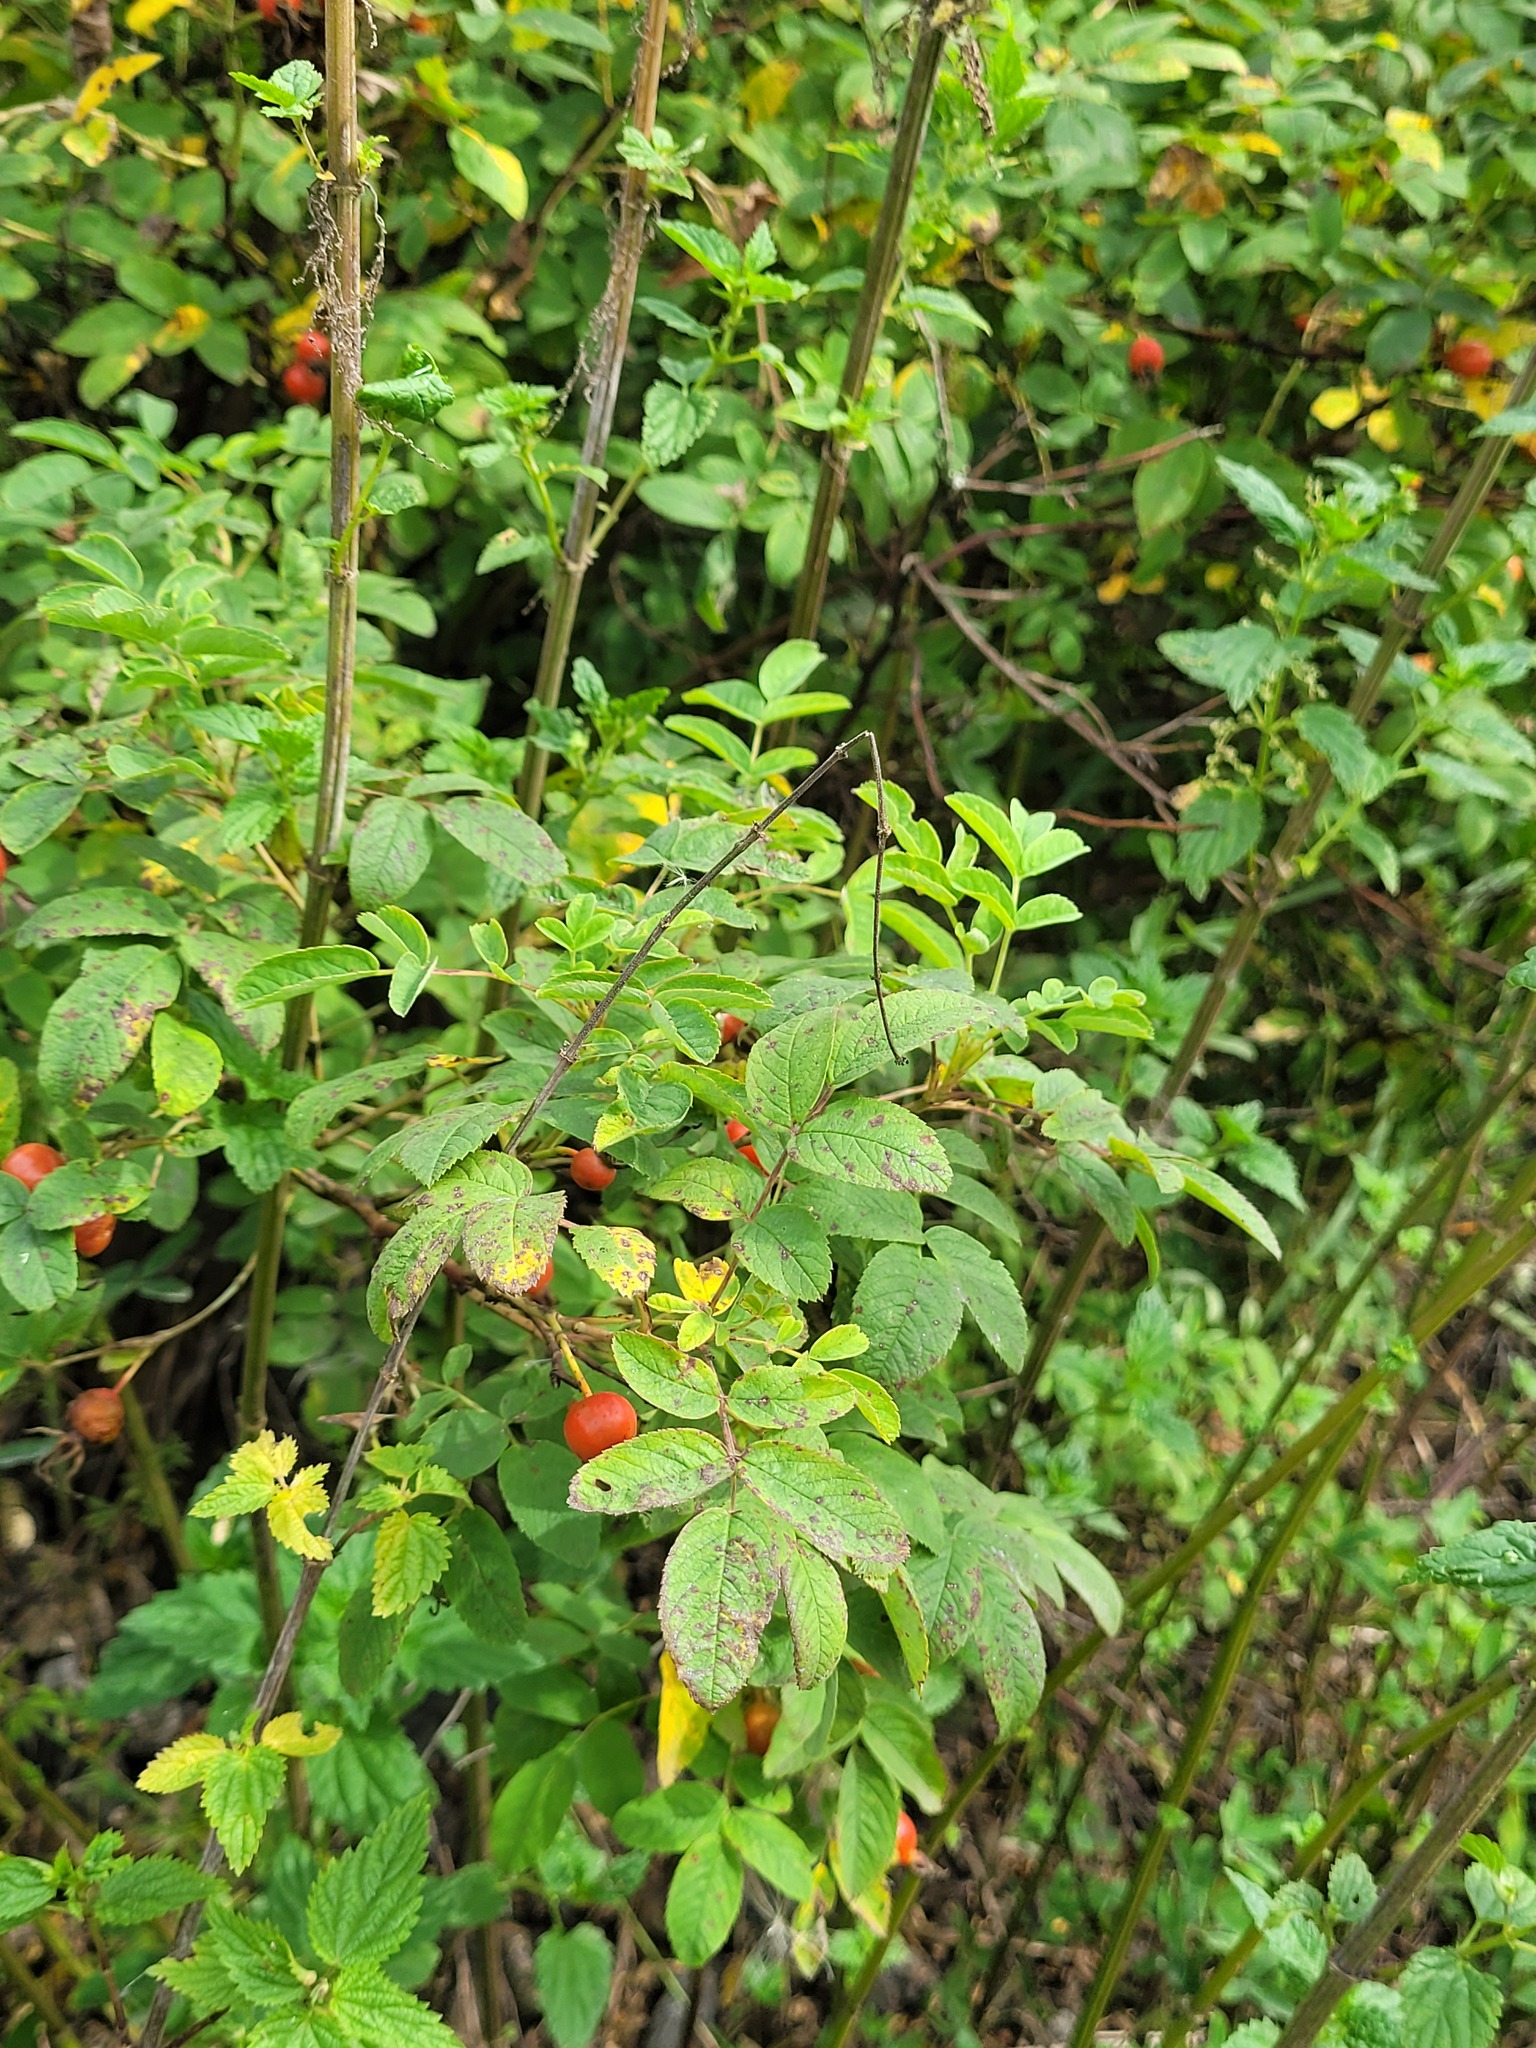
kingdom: Plantae
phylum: Tracheophyta
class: Magnoliopsida
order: Rosales
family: Rosaceae
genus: Rosa
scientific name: Rosa majalis
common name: Cinnamon rose
